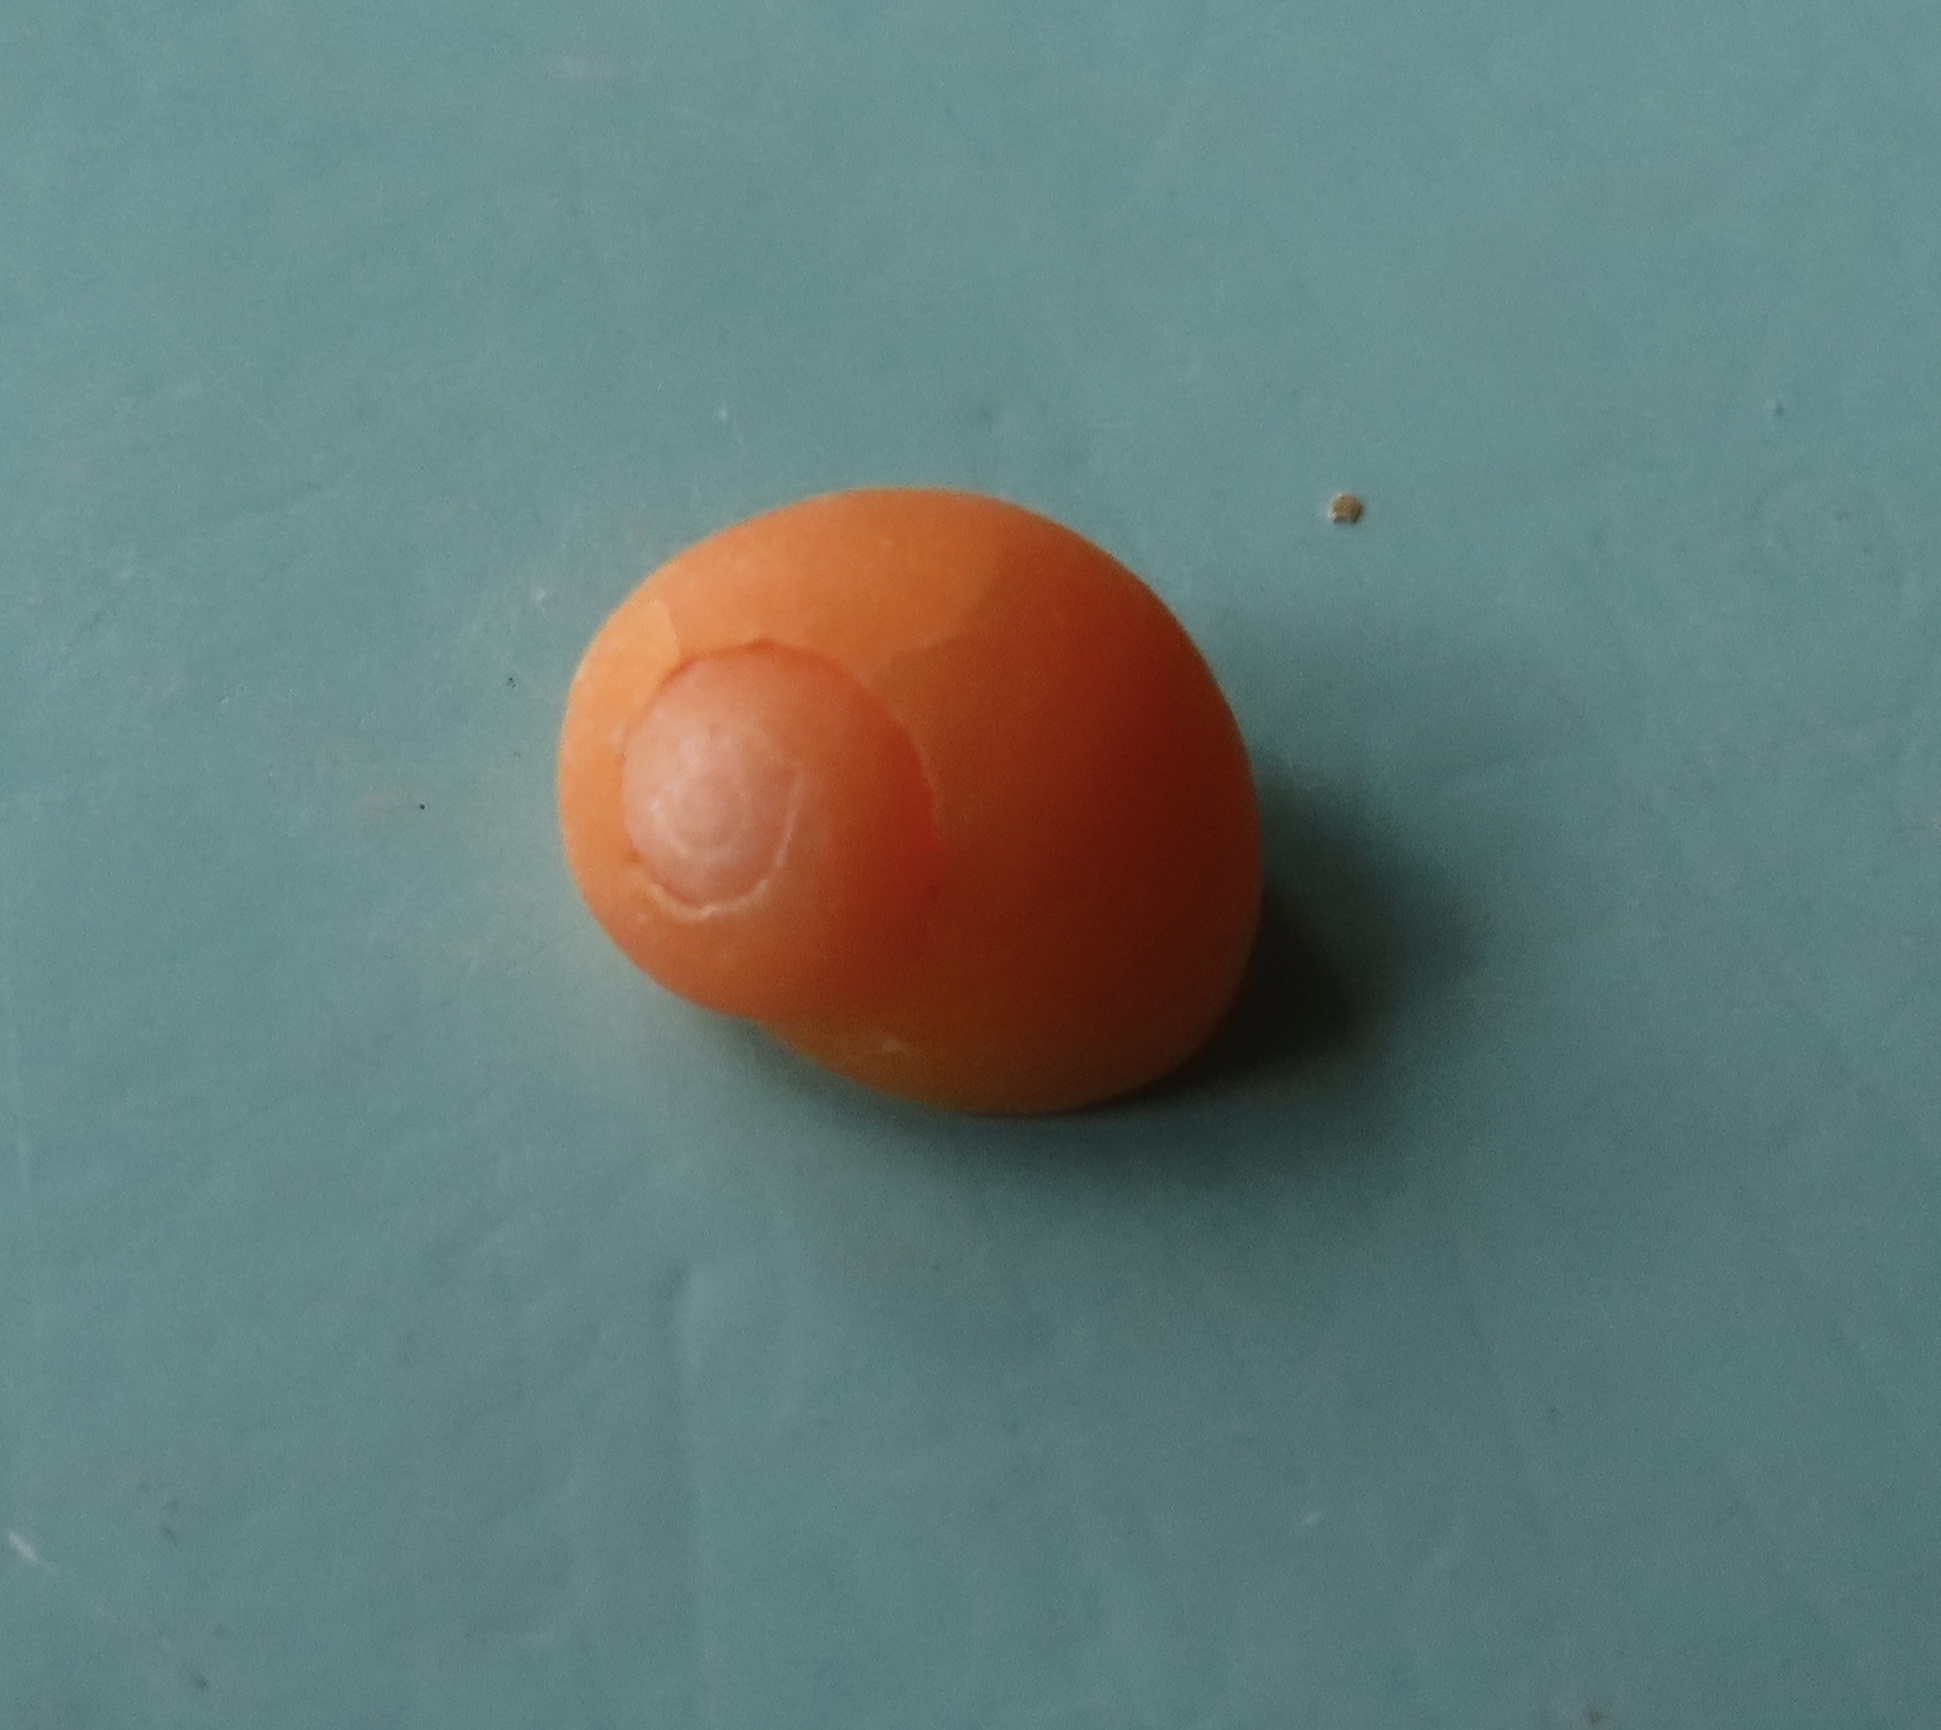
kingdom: Animalia
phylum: Mollusca
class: Gastropoda
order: Littorinimorpha
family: Littorinidae
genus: Littorina
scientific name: Littorina
